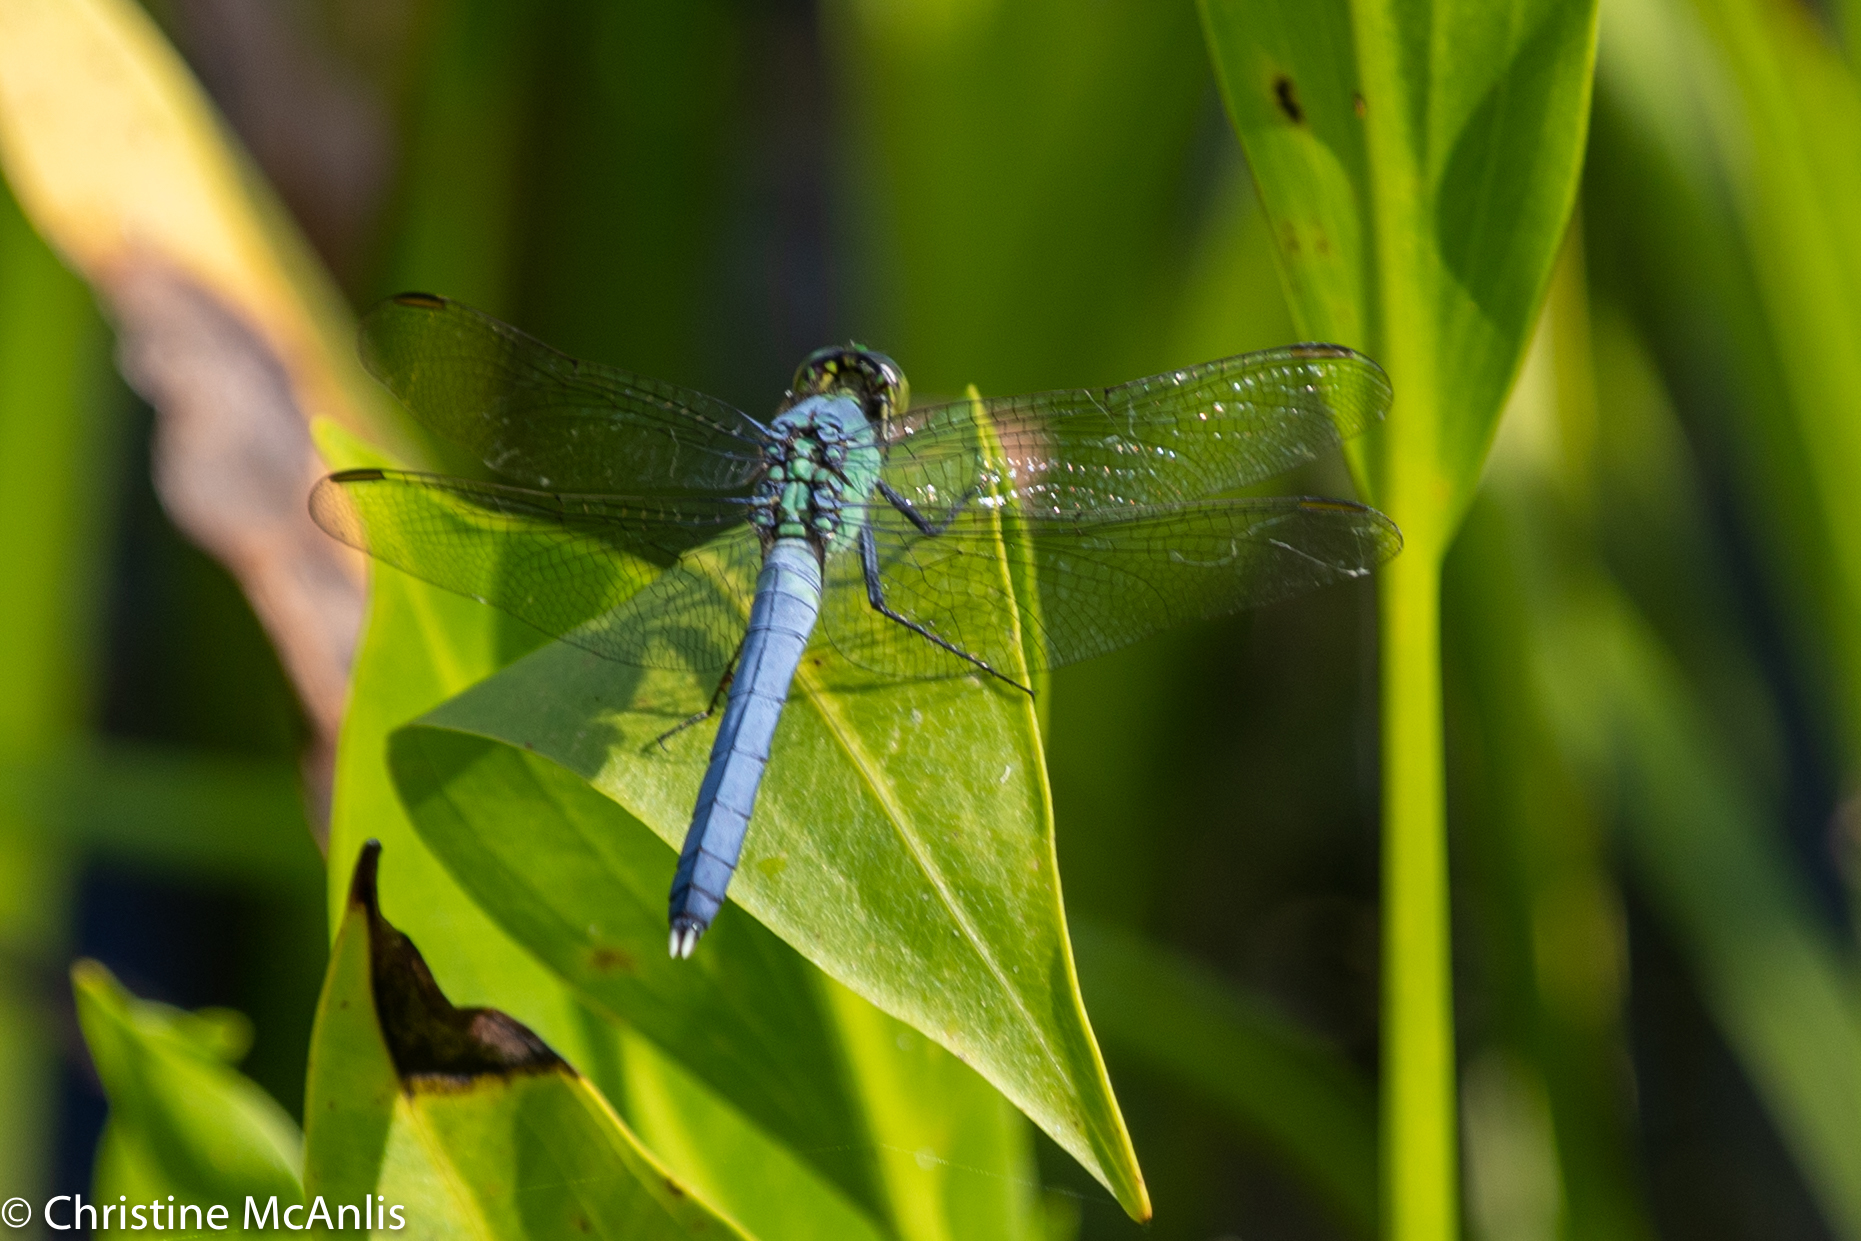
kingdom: Animalia
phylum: Arthropoda
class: Insecta
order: Odonata
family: Libellulidae
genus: Erythemis
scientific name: Erythemis simplicicollis
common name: Eastern pondhawk
